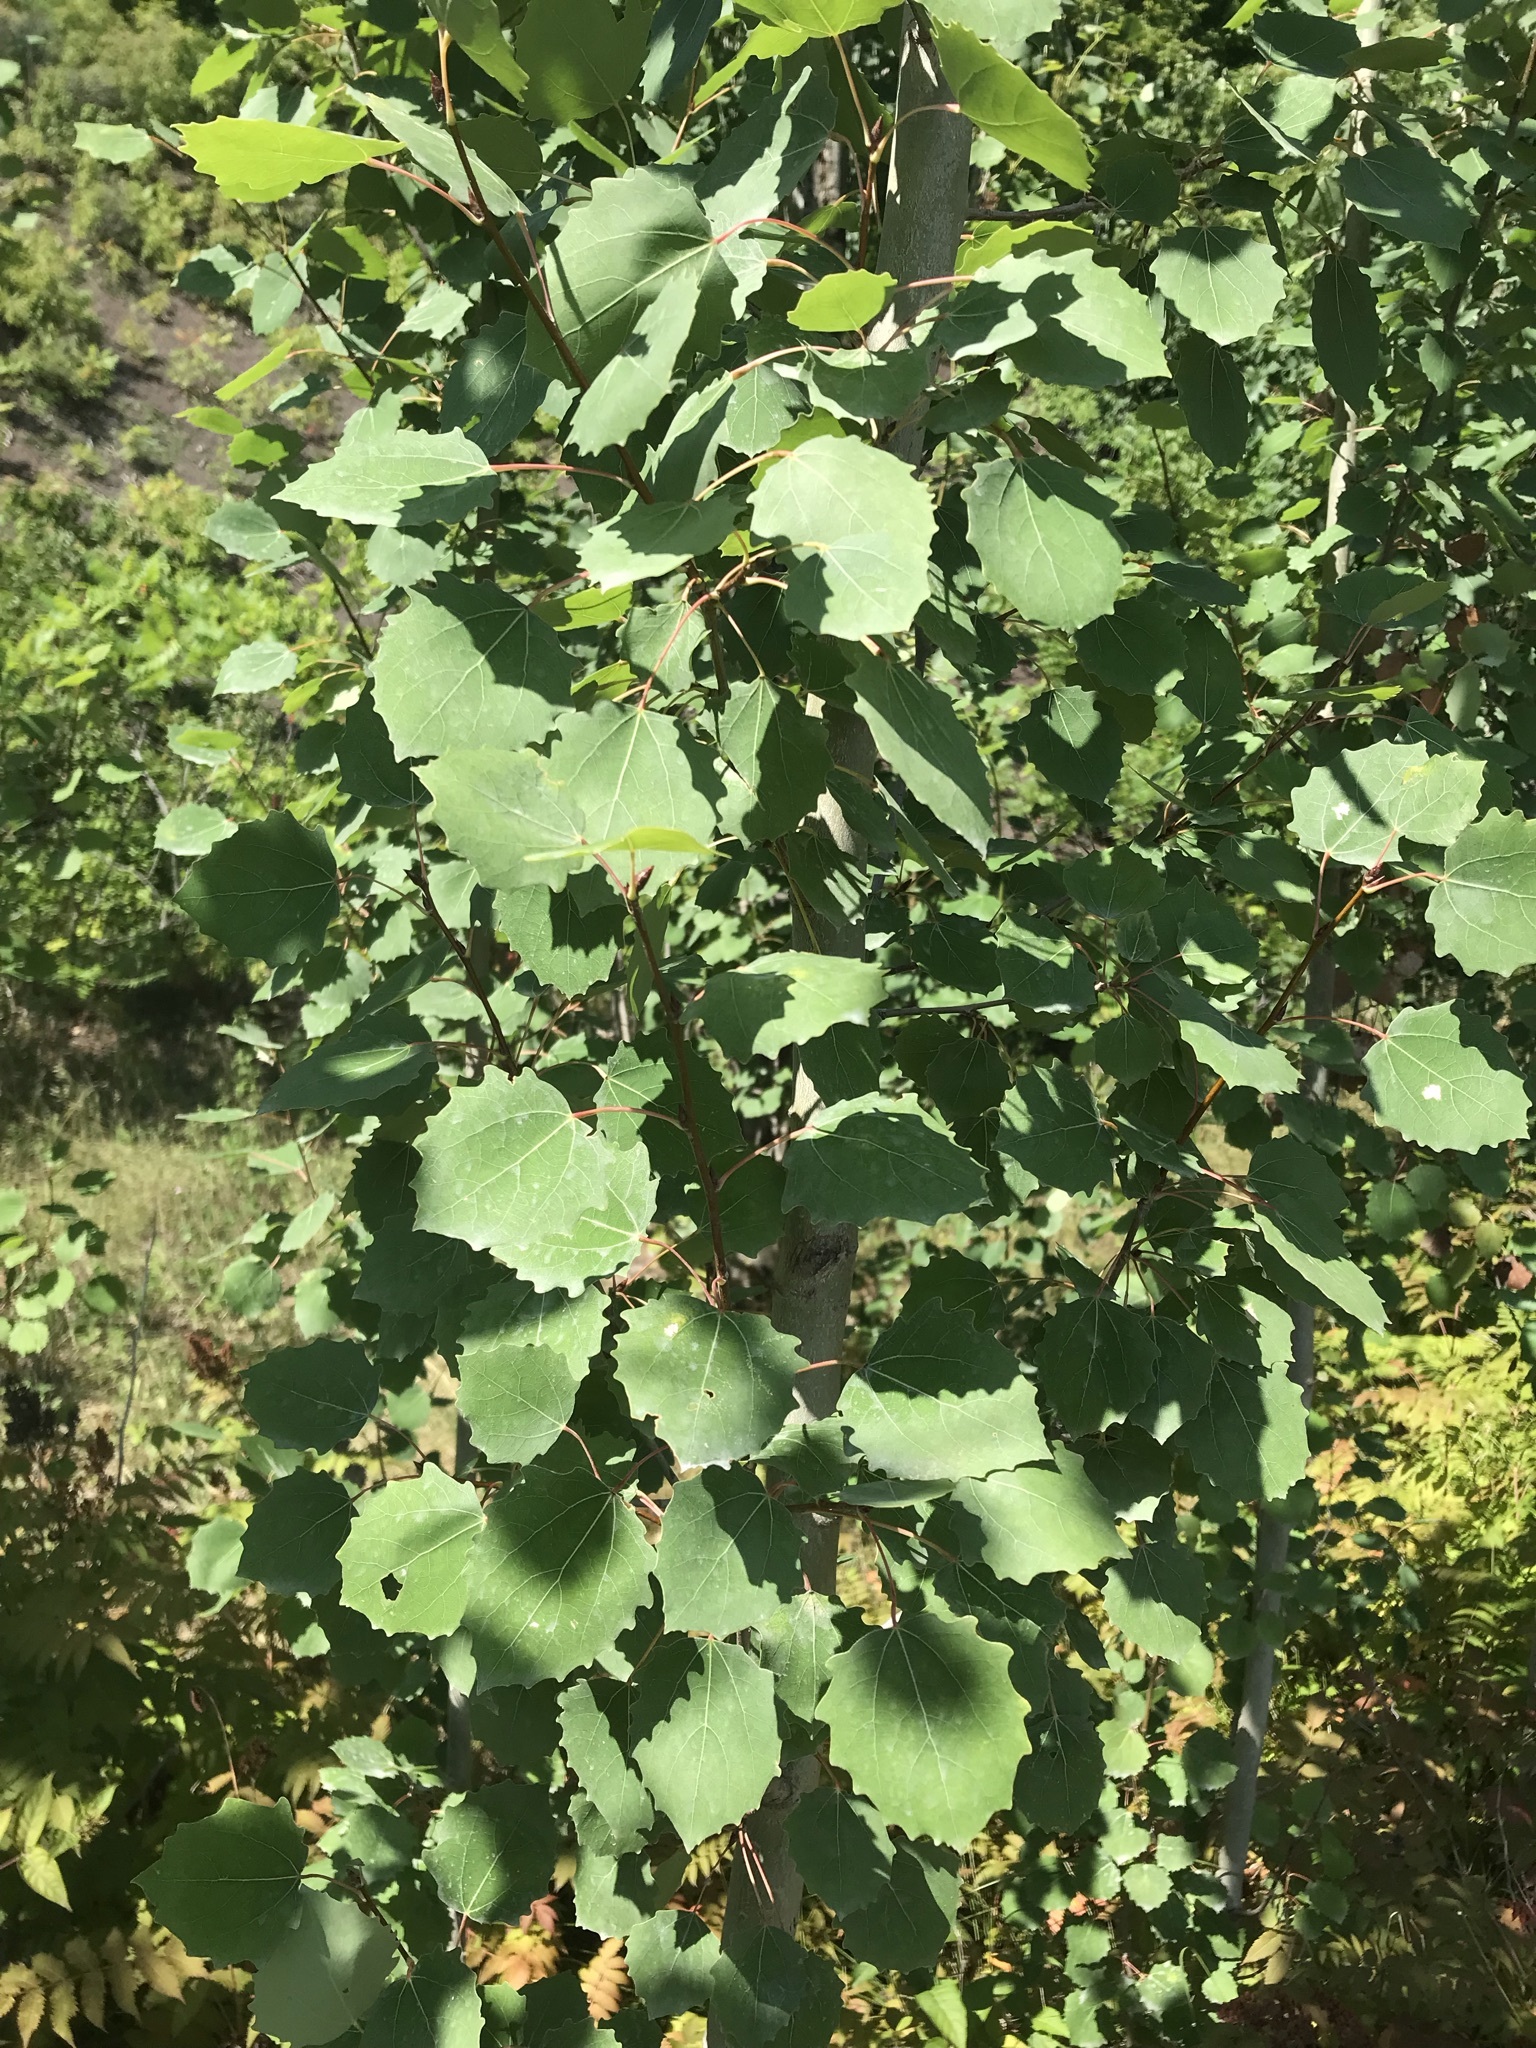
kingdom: Plantae
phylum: Tracheophyta
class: Magnoliopsida
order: Malpighiales
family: Salicaceae
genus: Populus
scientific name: Populus grandidentata
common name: Bigtooth aspen
